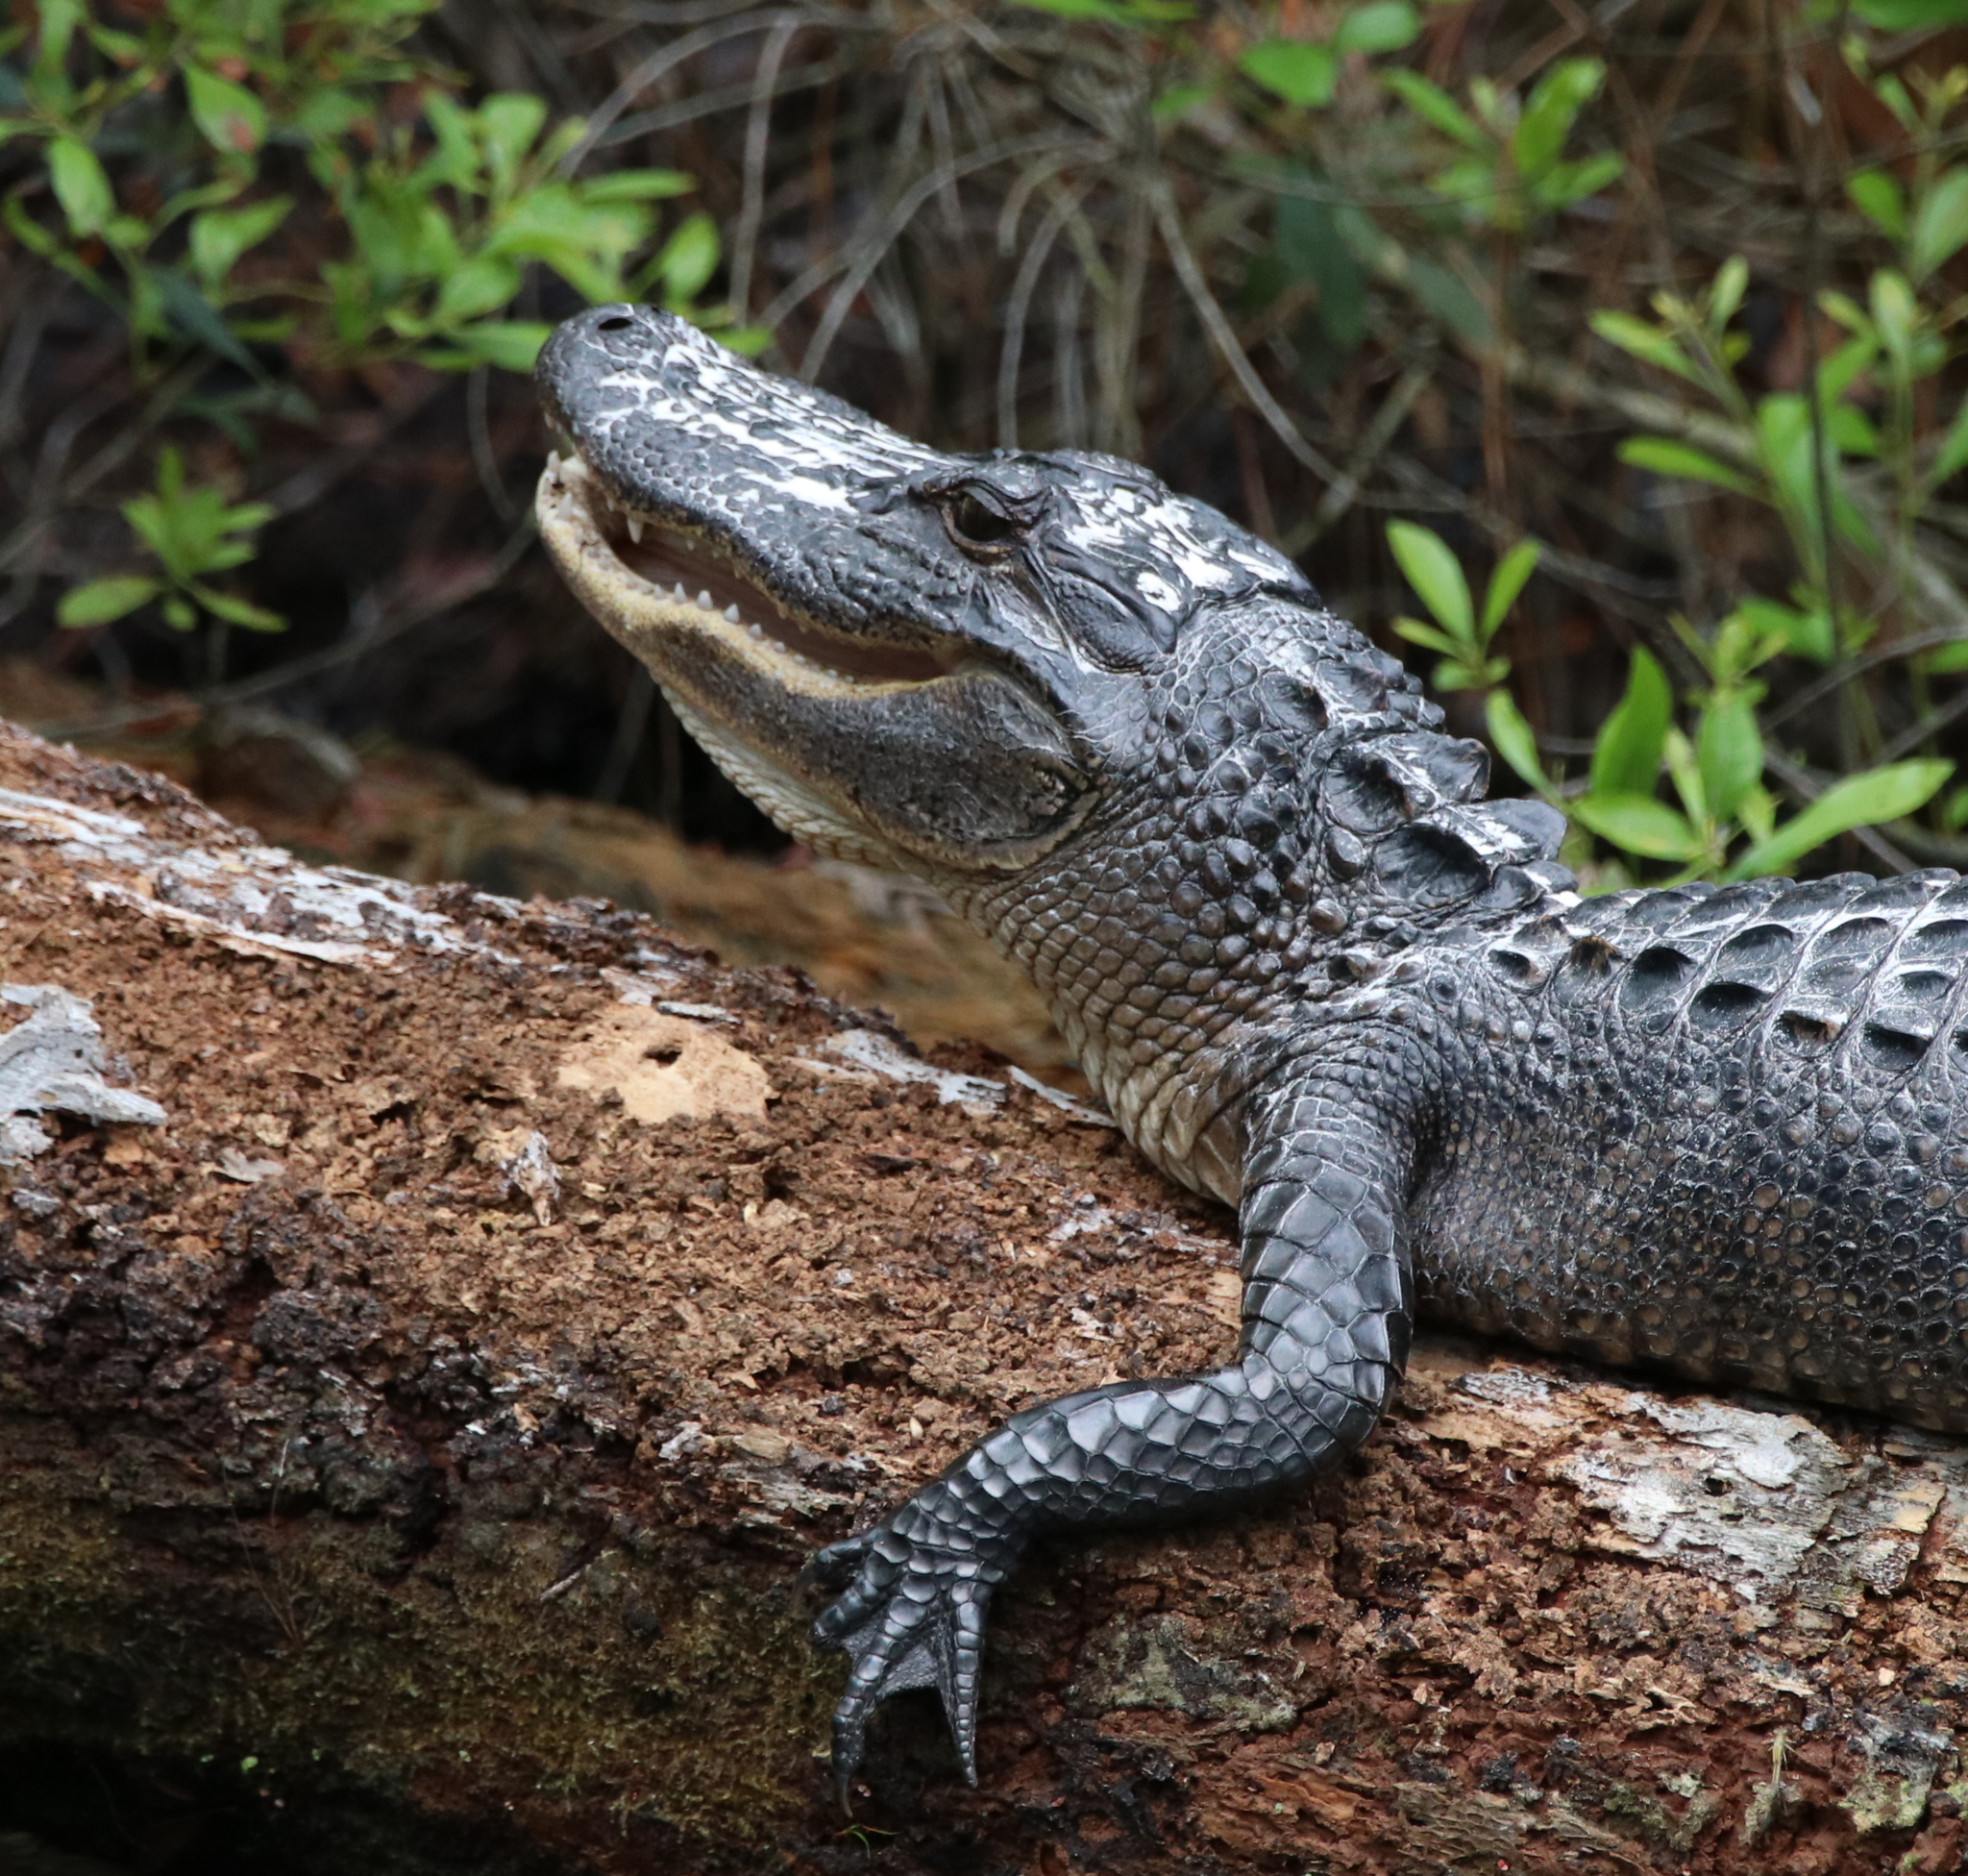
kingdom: Animalia
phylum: Chordata
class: Crocodylia
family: Alligatoridae
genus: Alligator
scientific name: Alligator mississippiensis
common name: American alligator
